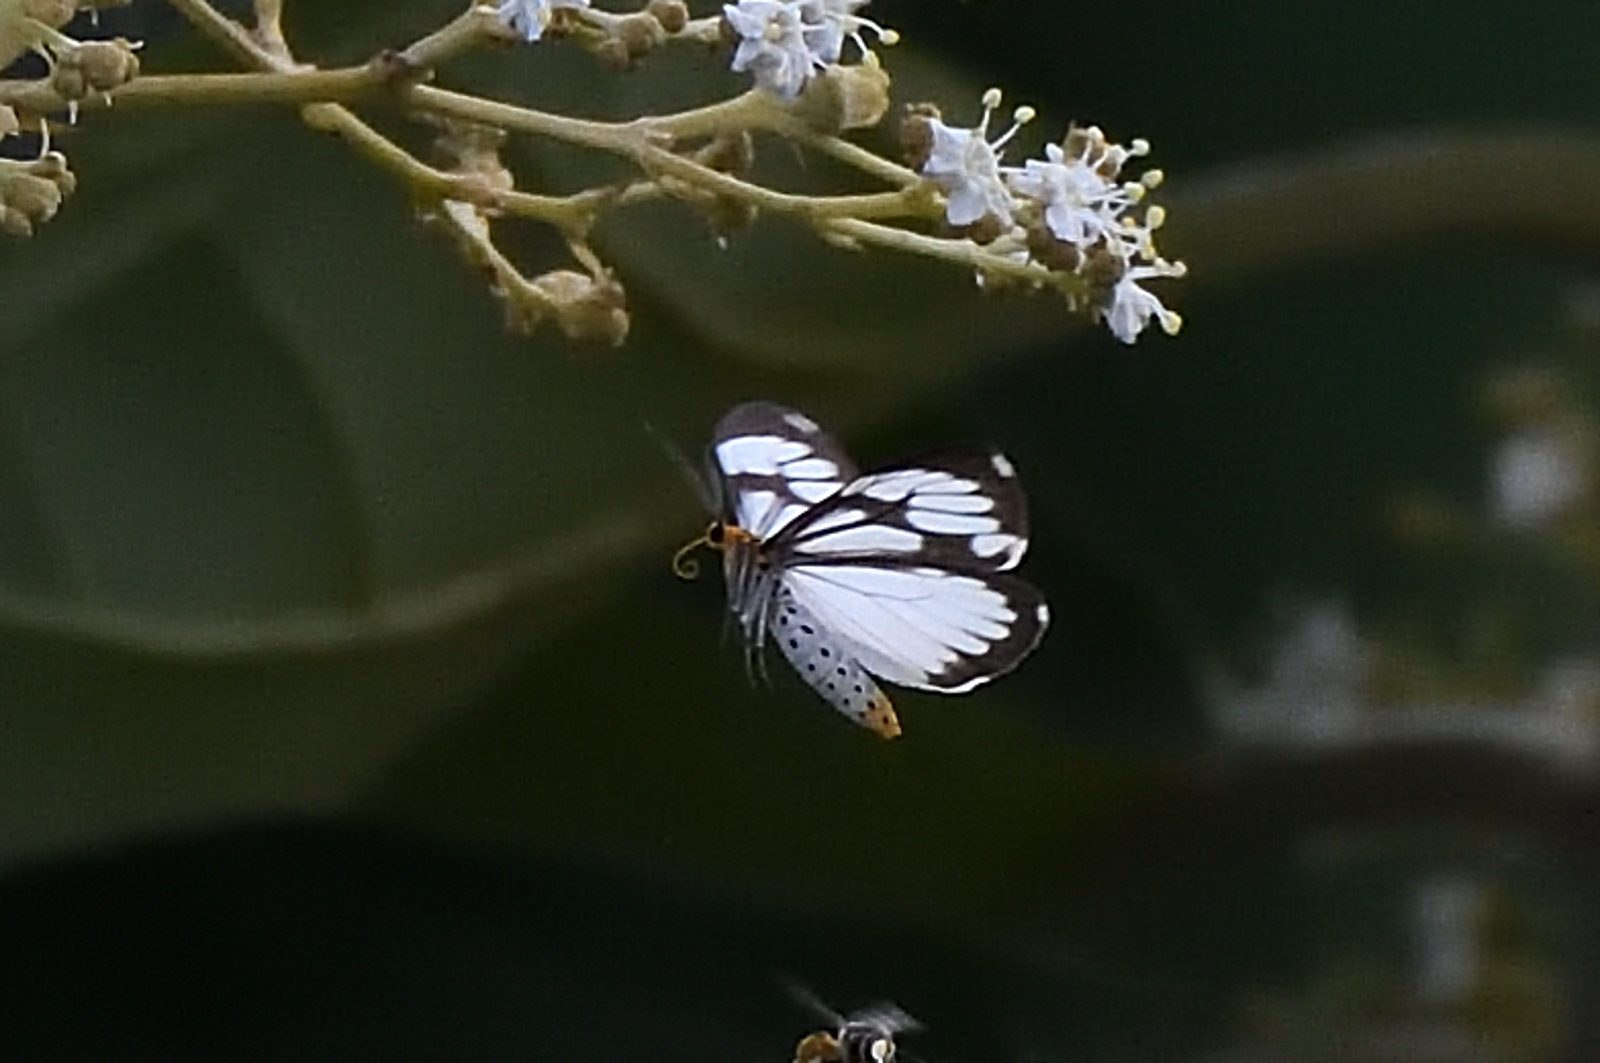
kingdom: Animalia
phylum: Arthropoda
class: Insecta
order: Lepidoptera
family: Erebidae
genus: Nyctemera
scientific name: Nyctemera coleta
